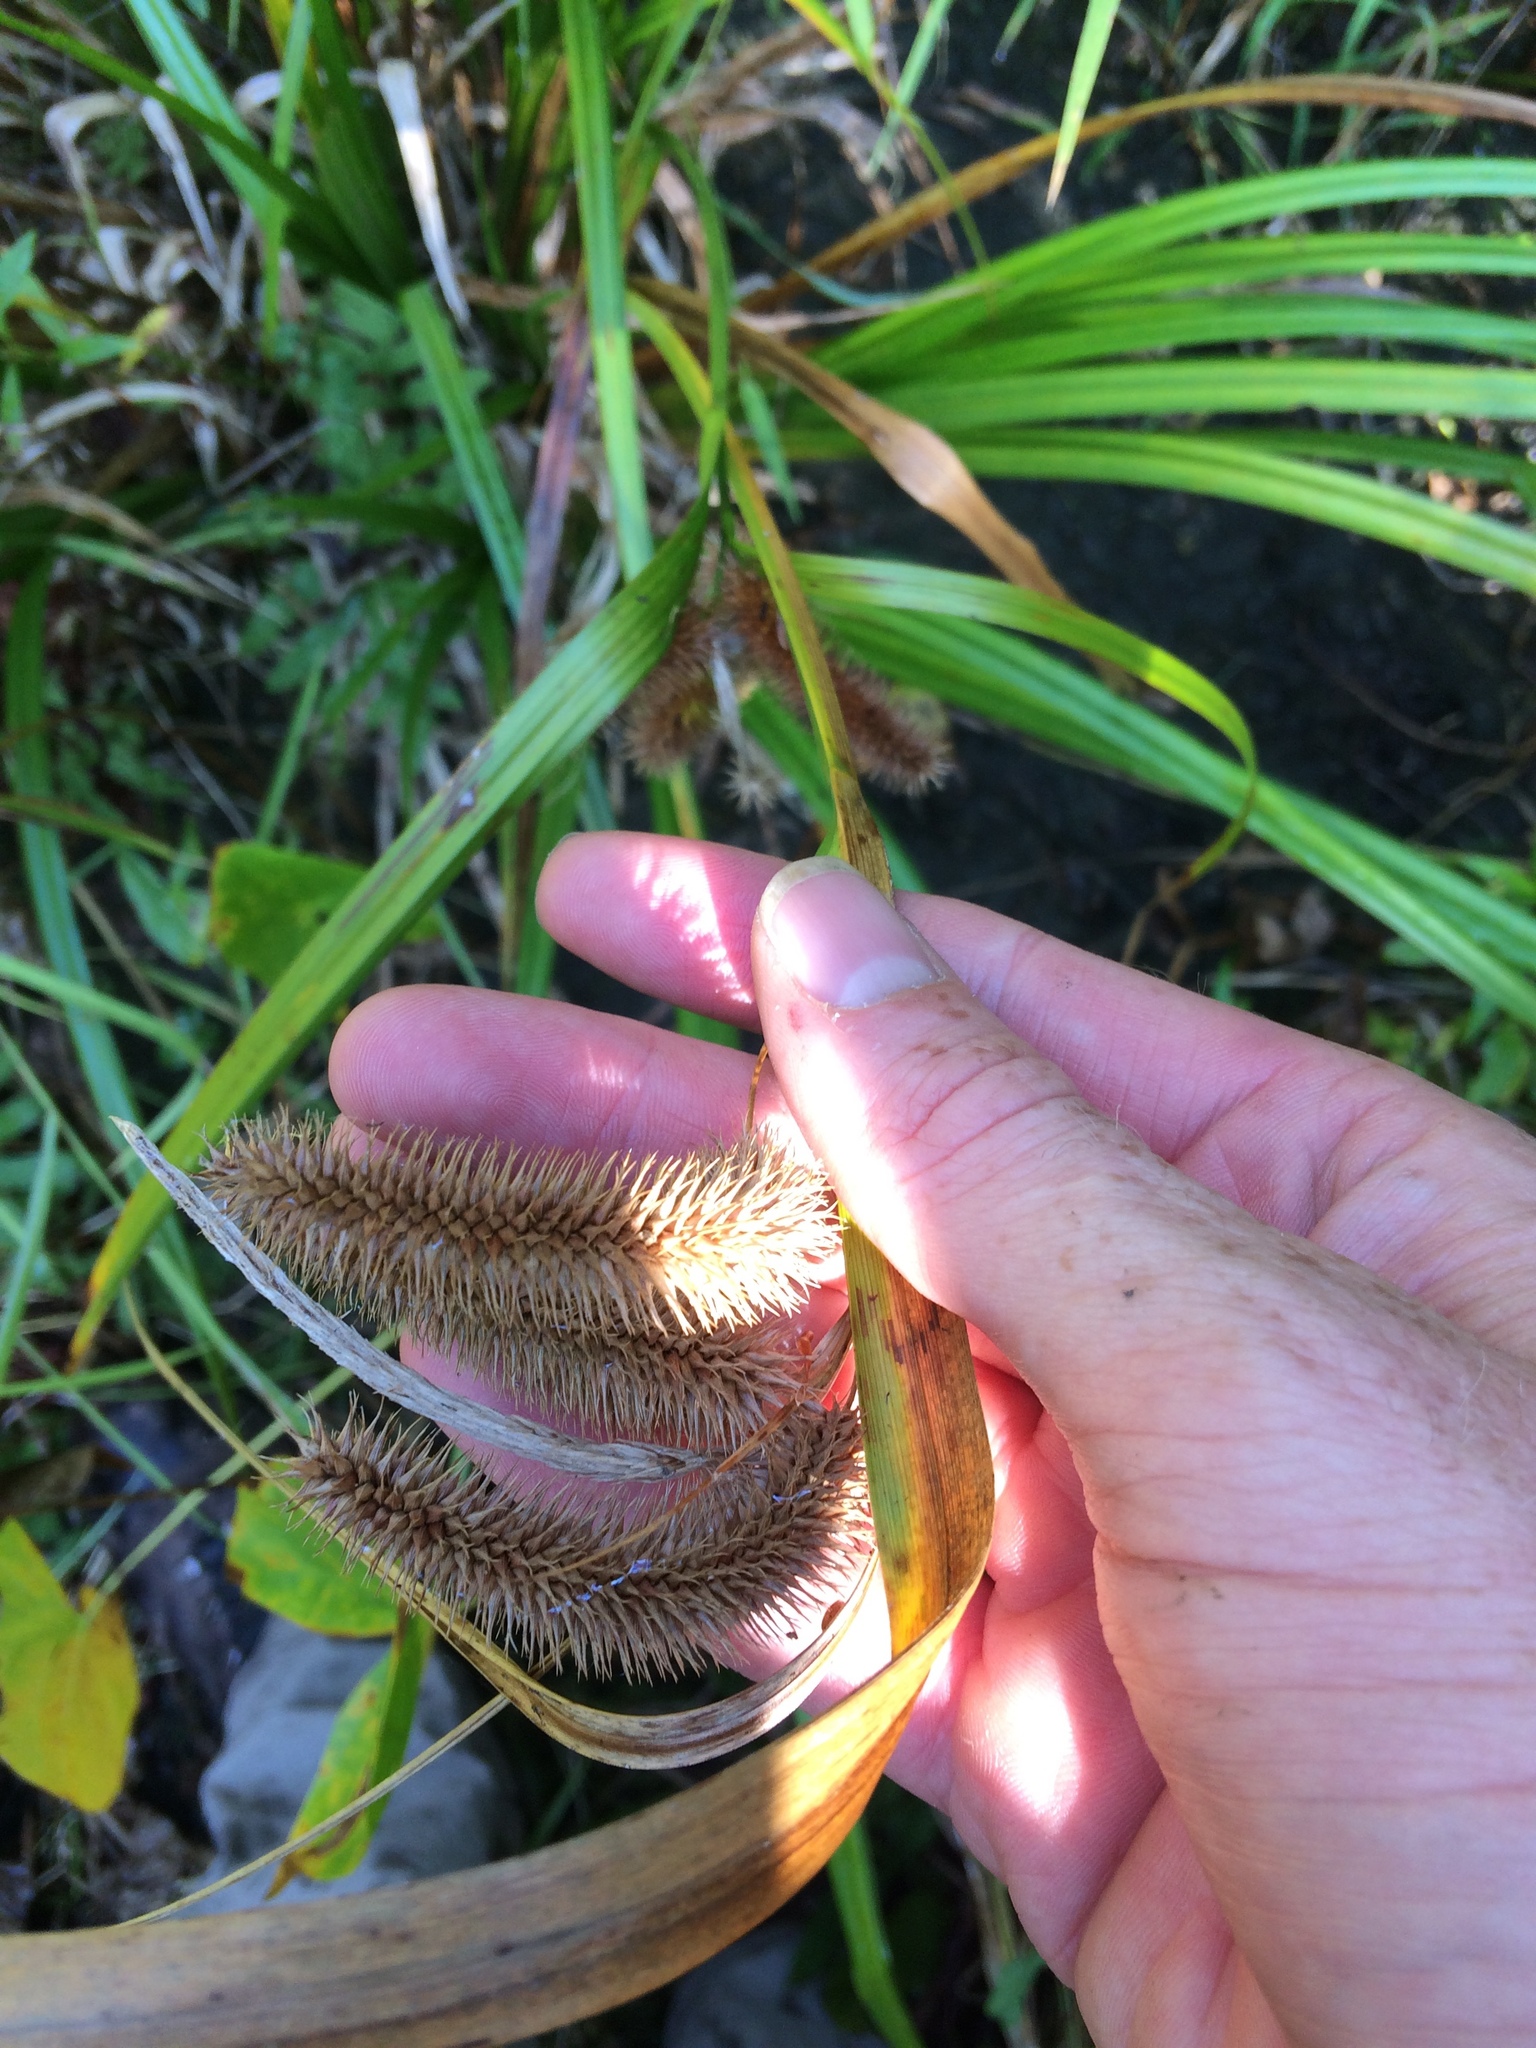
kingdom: Plantae
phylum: Tracheophyta
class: Liliopsida
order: Poales
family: Cyperaceae
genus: Carex
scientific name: Carex comosa
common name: Bristly sedge
